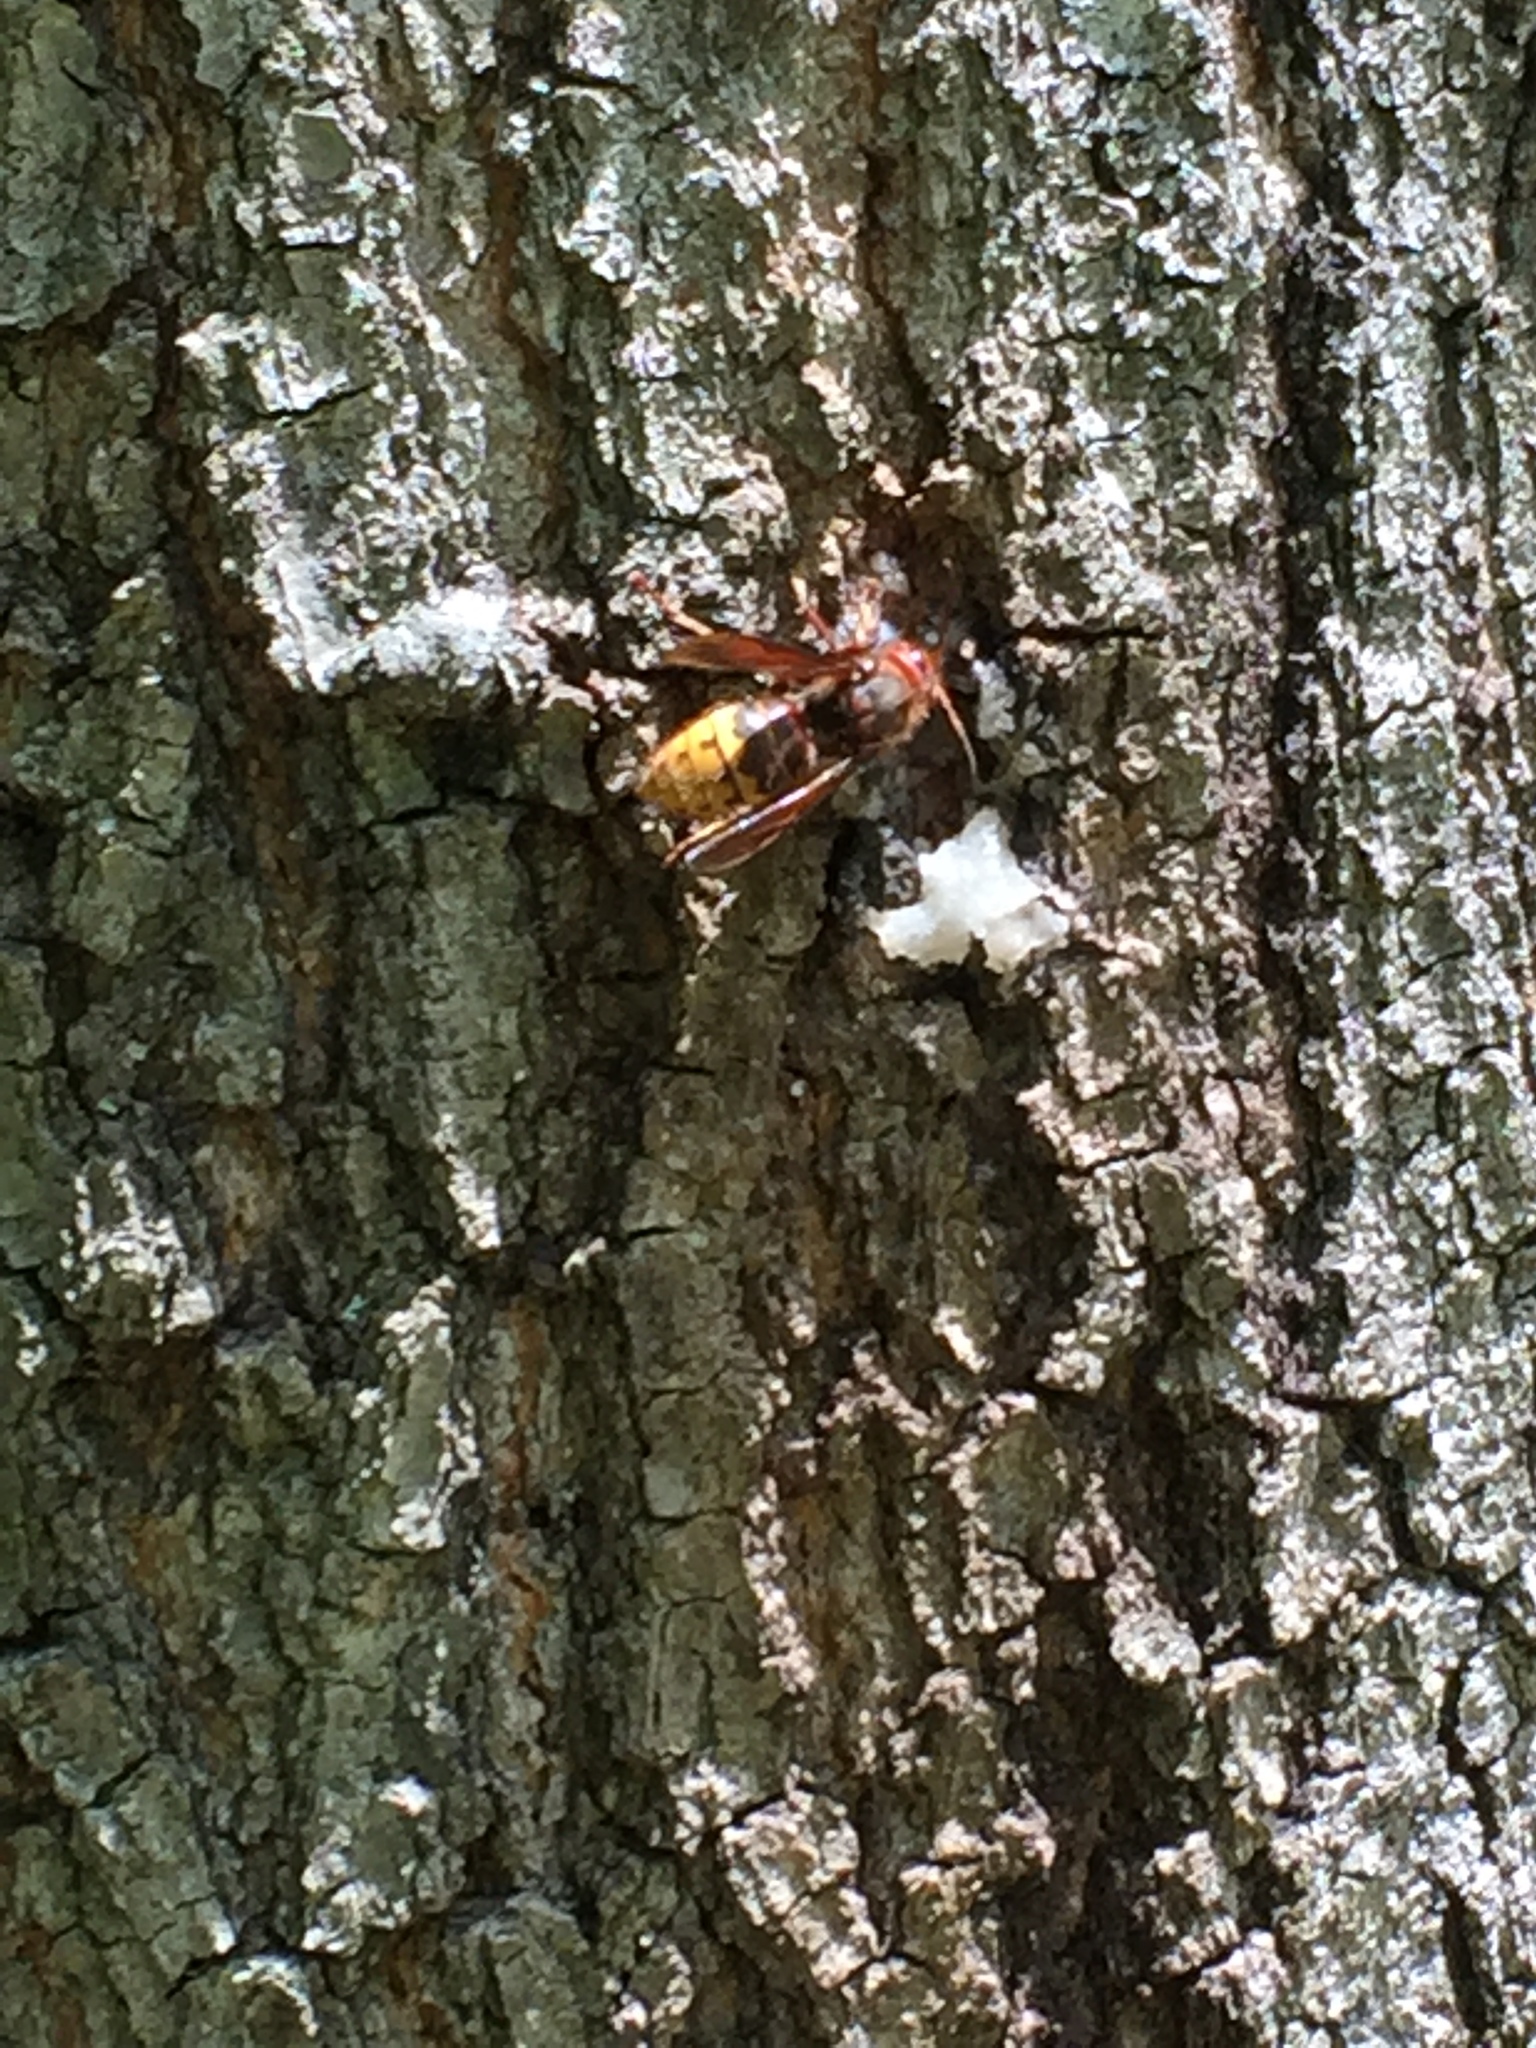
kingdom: Animalia
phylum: Arthropoda
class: Insecta
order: Hymenoptera
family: Vespidae
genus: Vespa
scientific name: Vespa crabro
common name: Hornet
